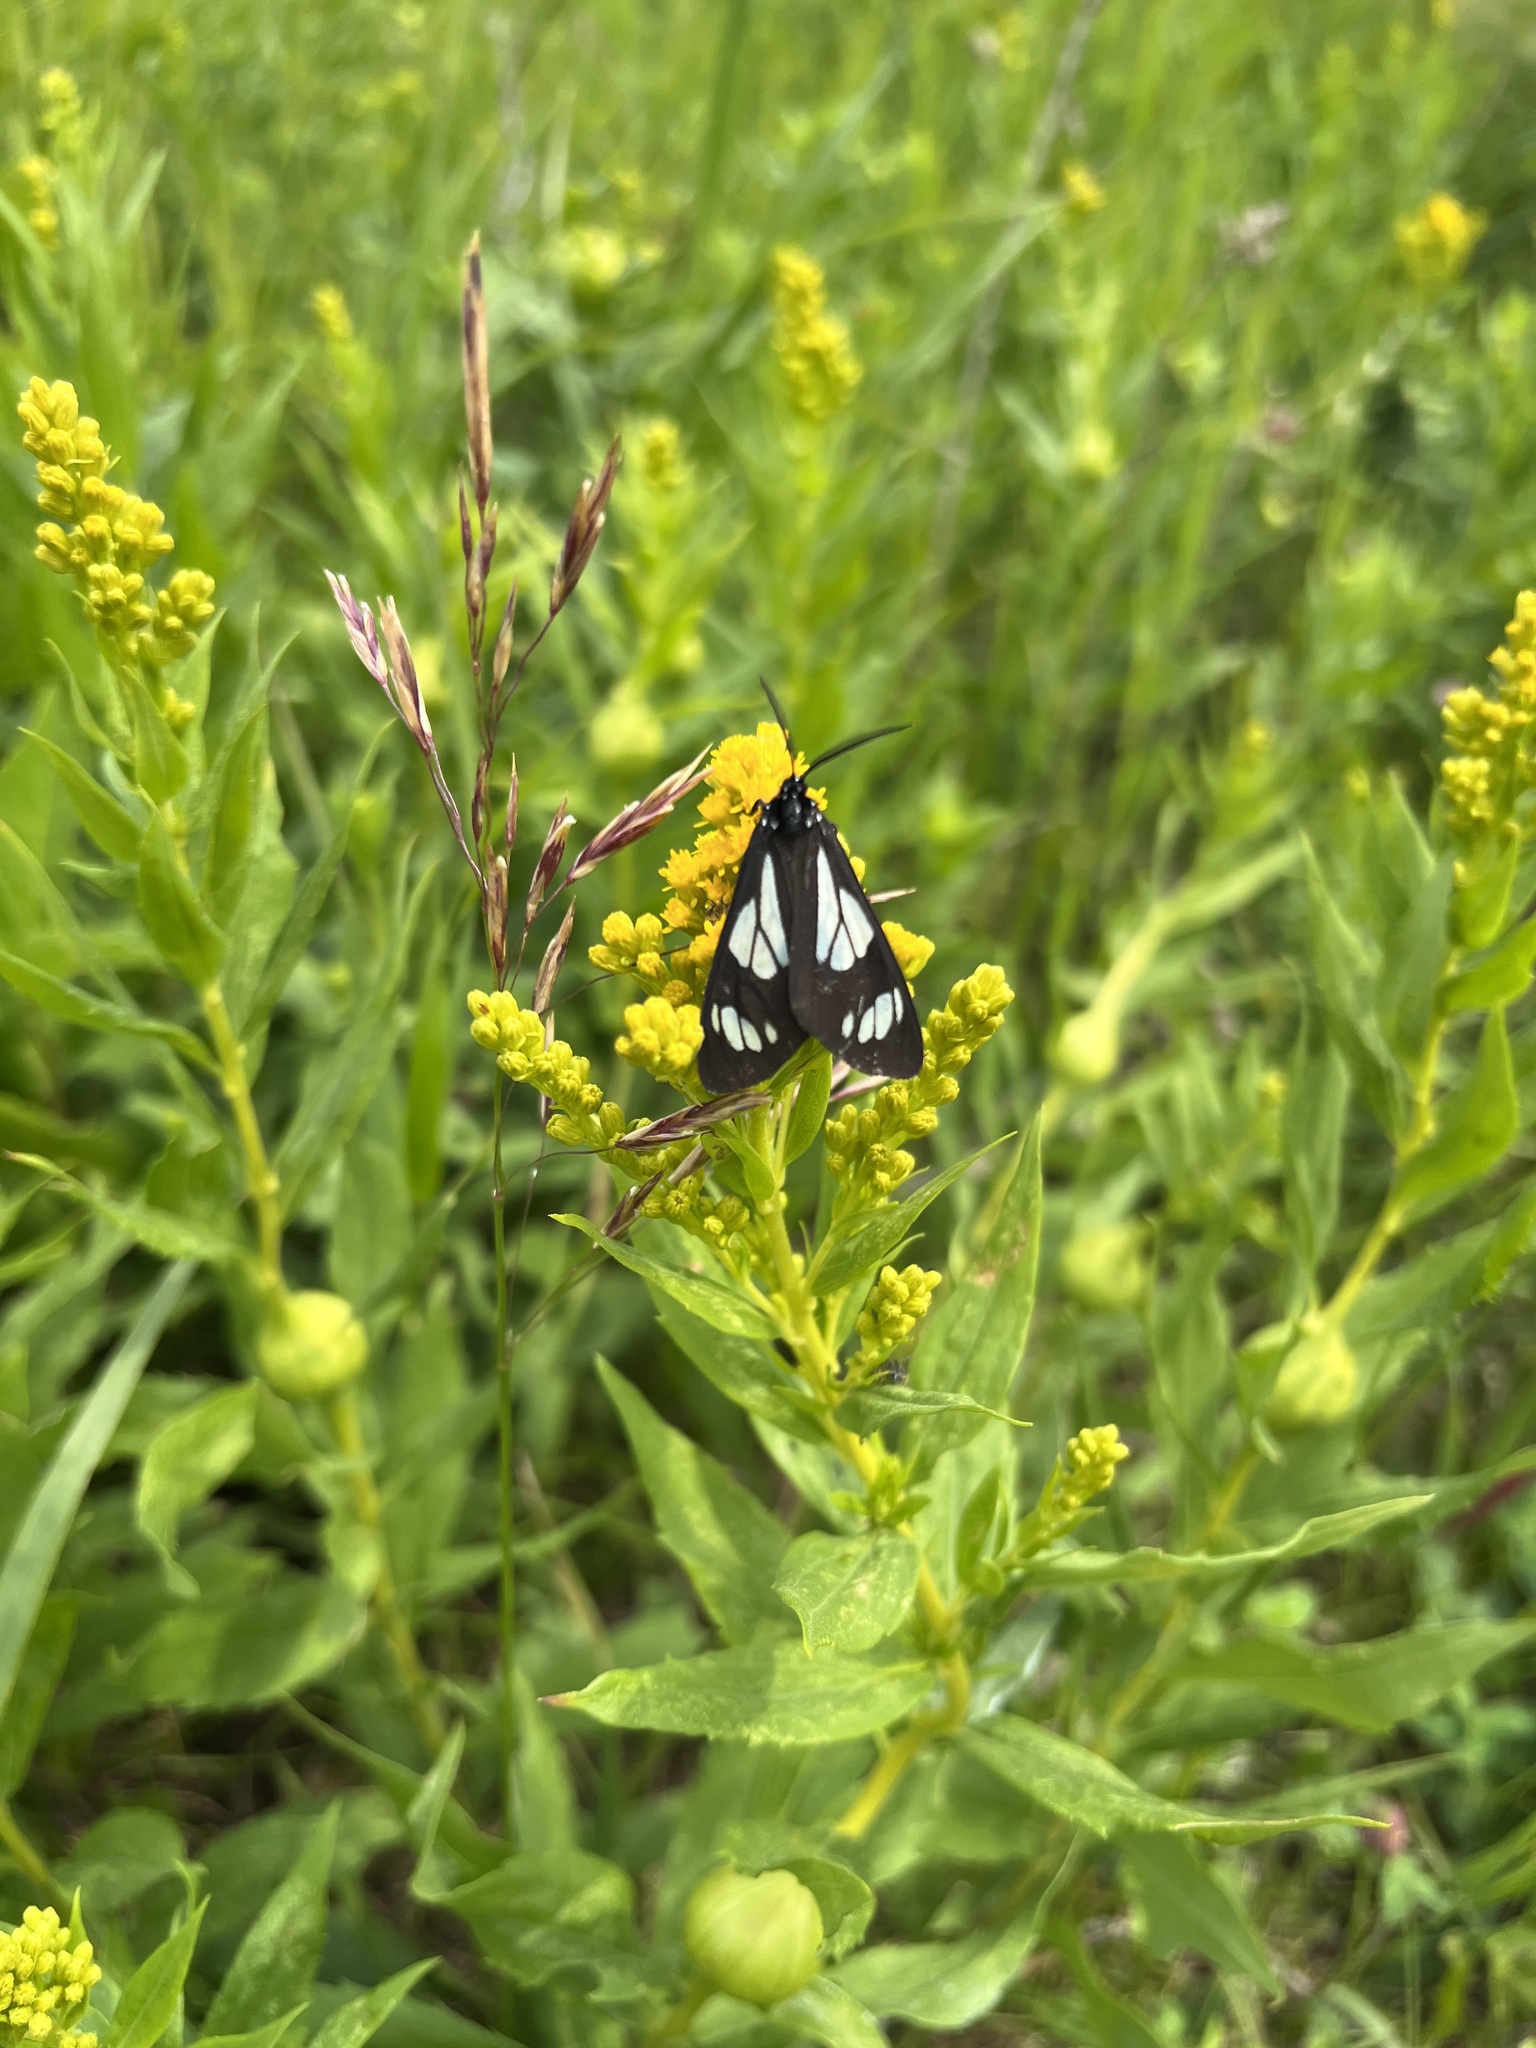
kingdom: Animalia
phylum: Arthropoda
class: Insecta
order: Lepidoptera
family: Erebidae
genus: Gnophaela
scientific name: Gnophaela vermiculata
